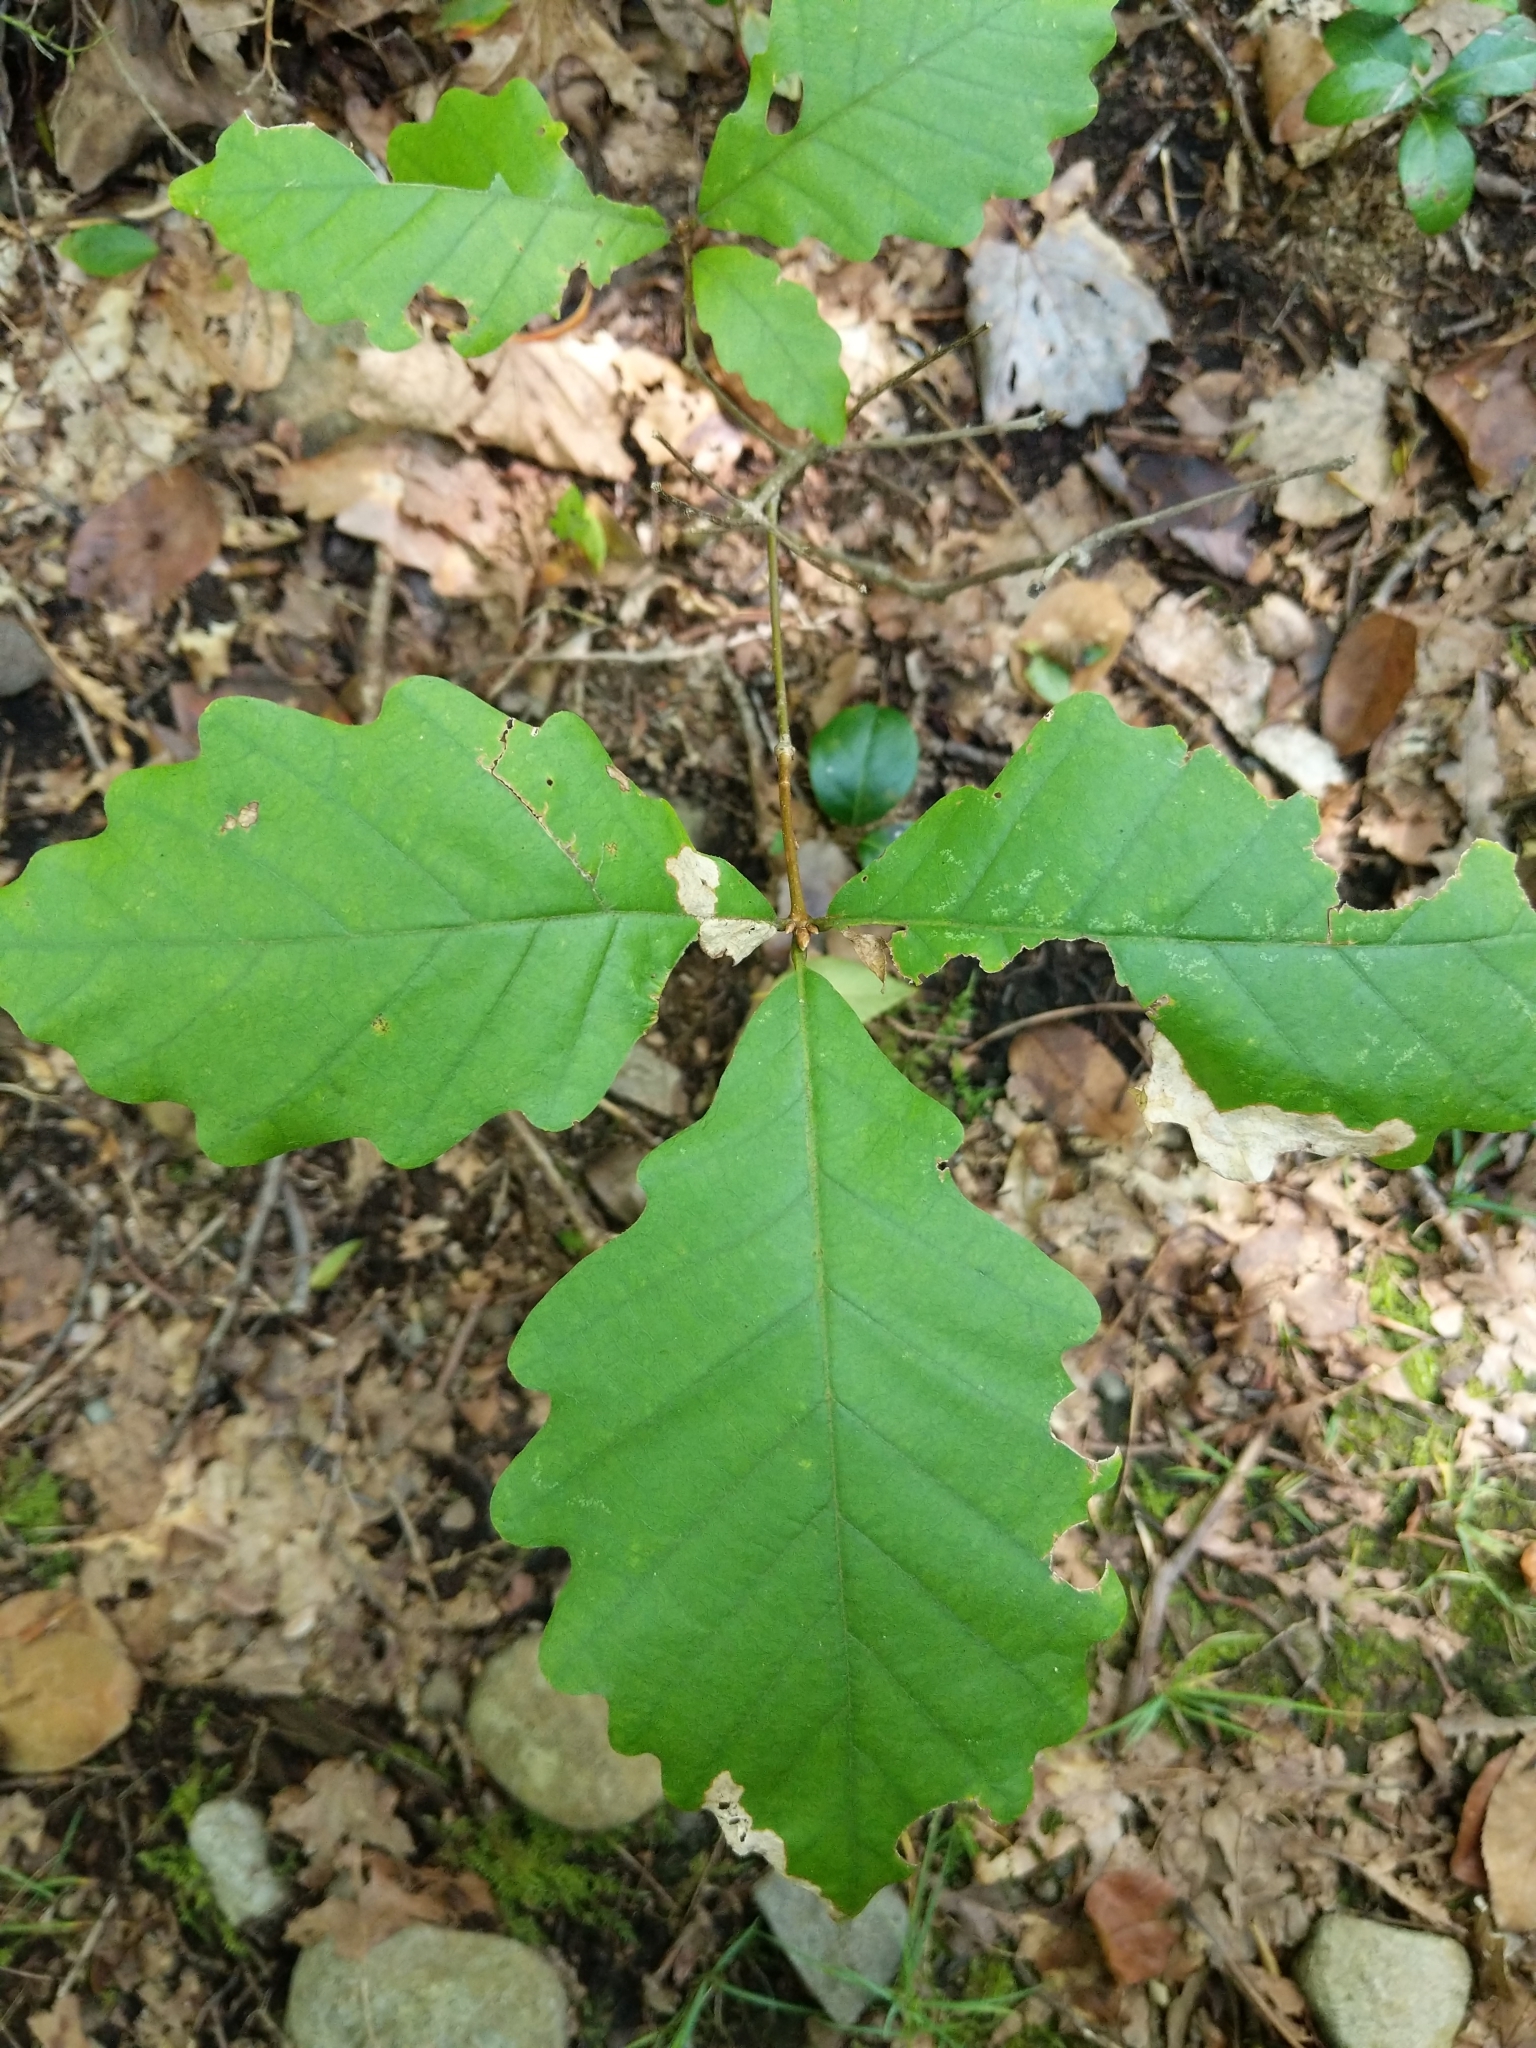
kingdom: Plantae
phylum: Tracheophyta
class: Magnoliopsida
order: Fagales
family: Fagaceae
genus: Quercus
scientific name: Quercus montana
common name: Chestnut oak
